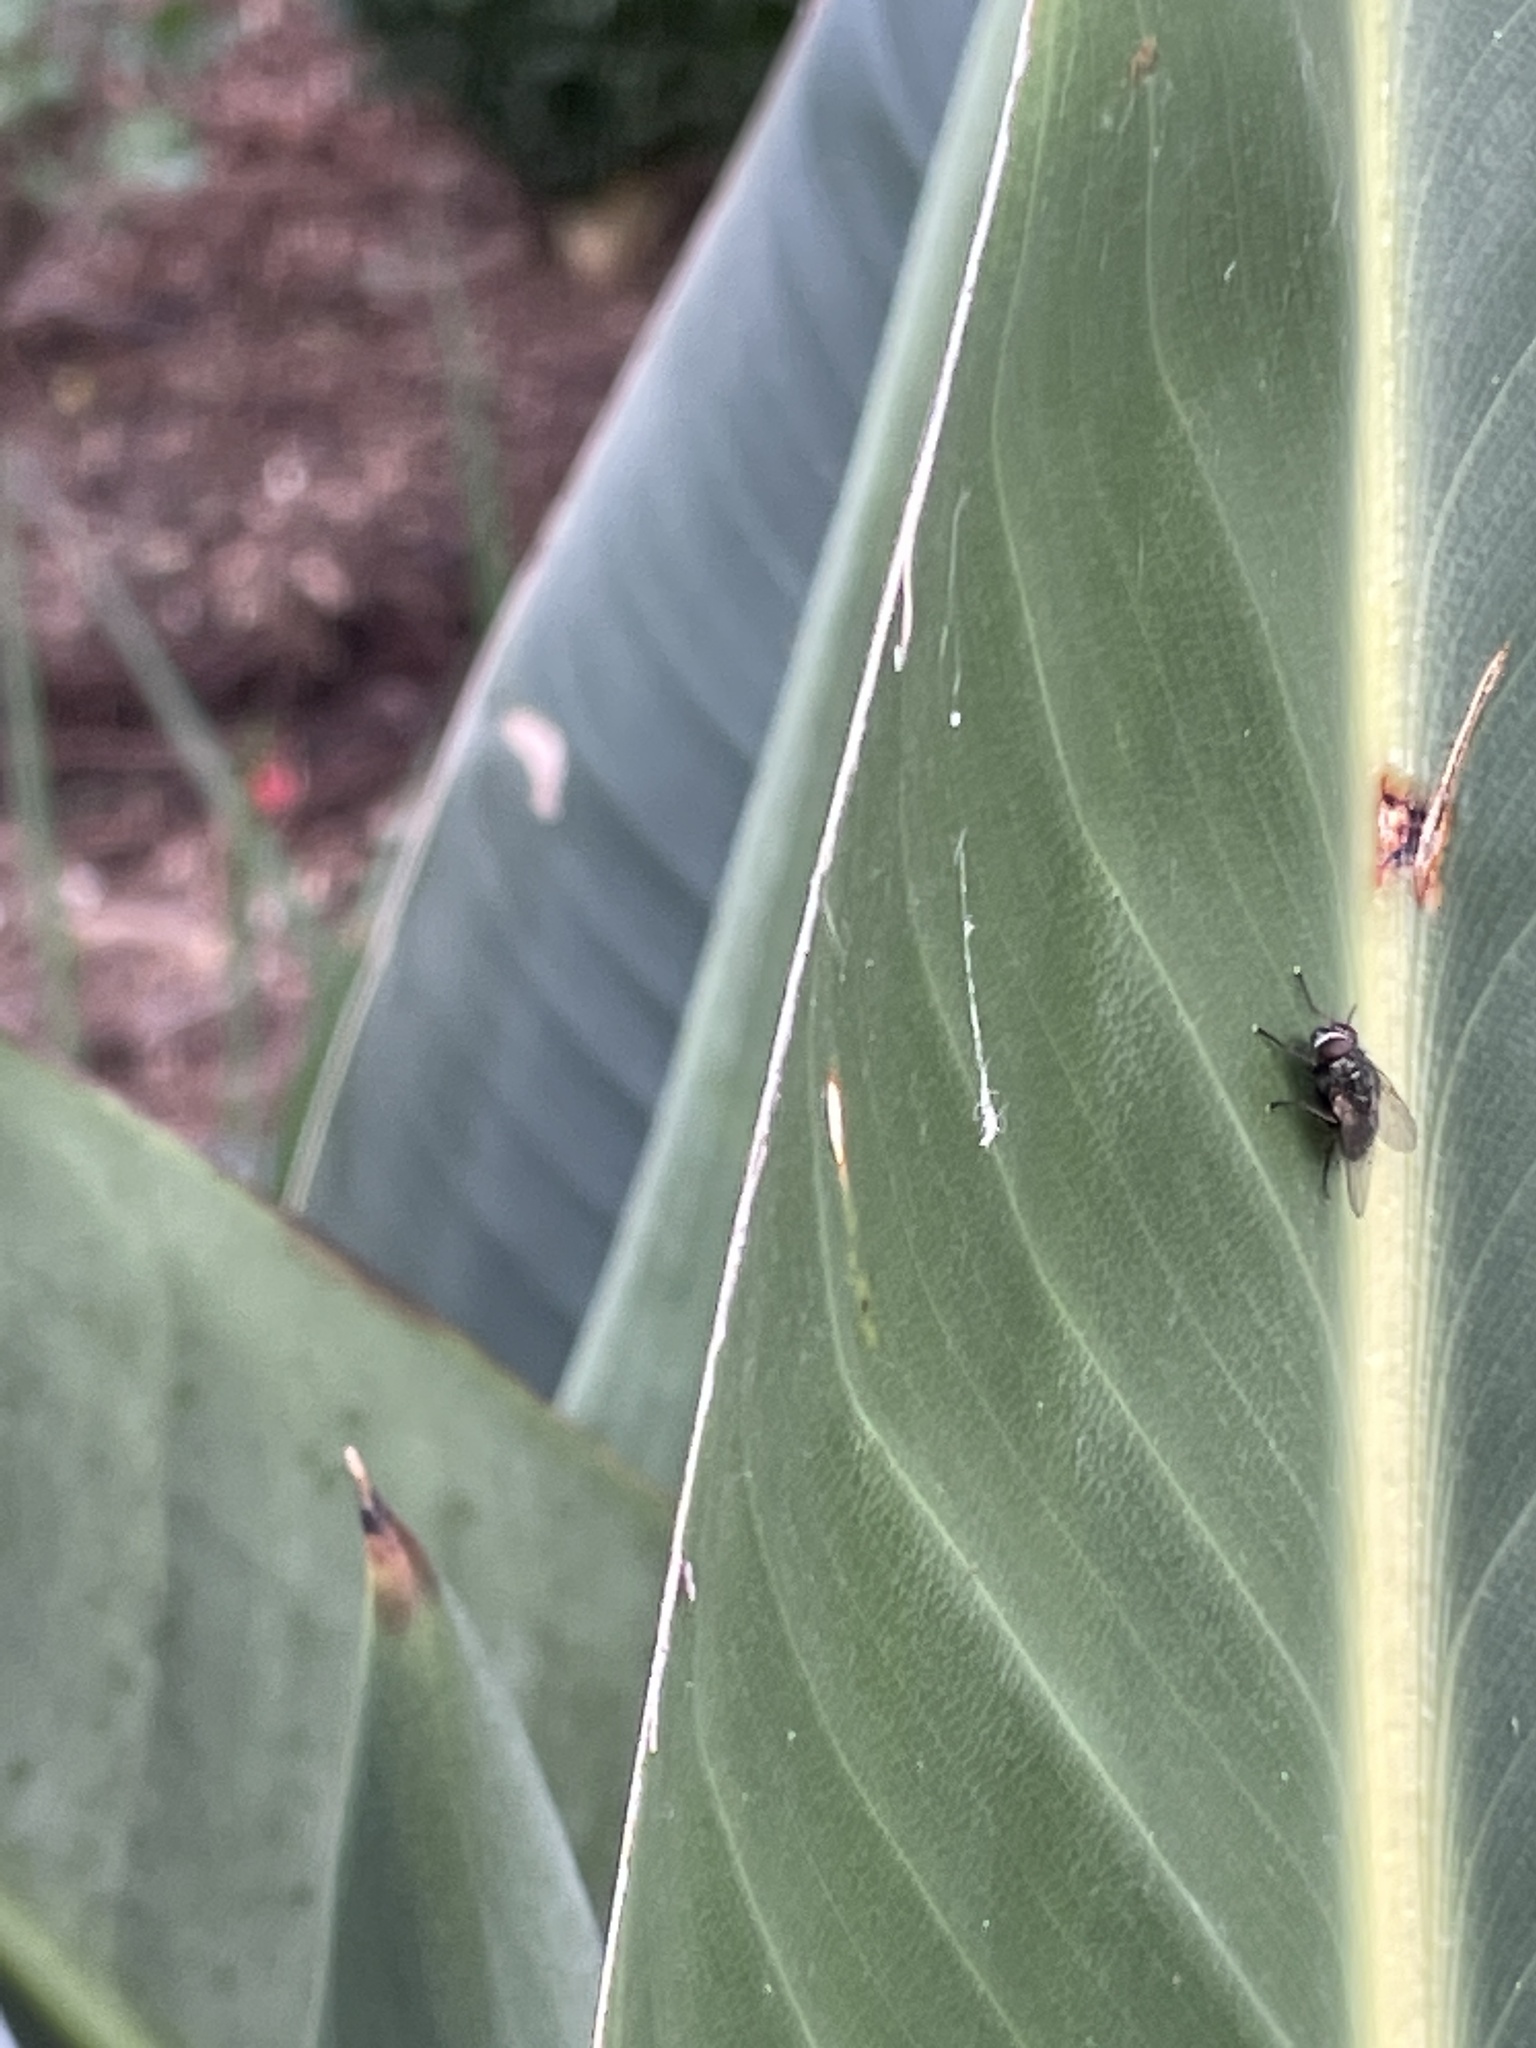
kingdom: Animalia
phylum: Arthropoda
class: Insecta
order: Diptera
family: Muscidae
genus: Muscina
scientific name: Muscina stabulans
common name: False stable fly
